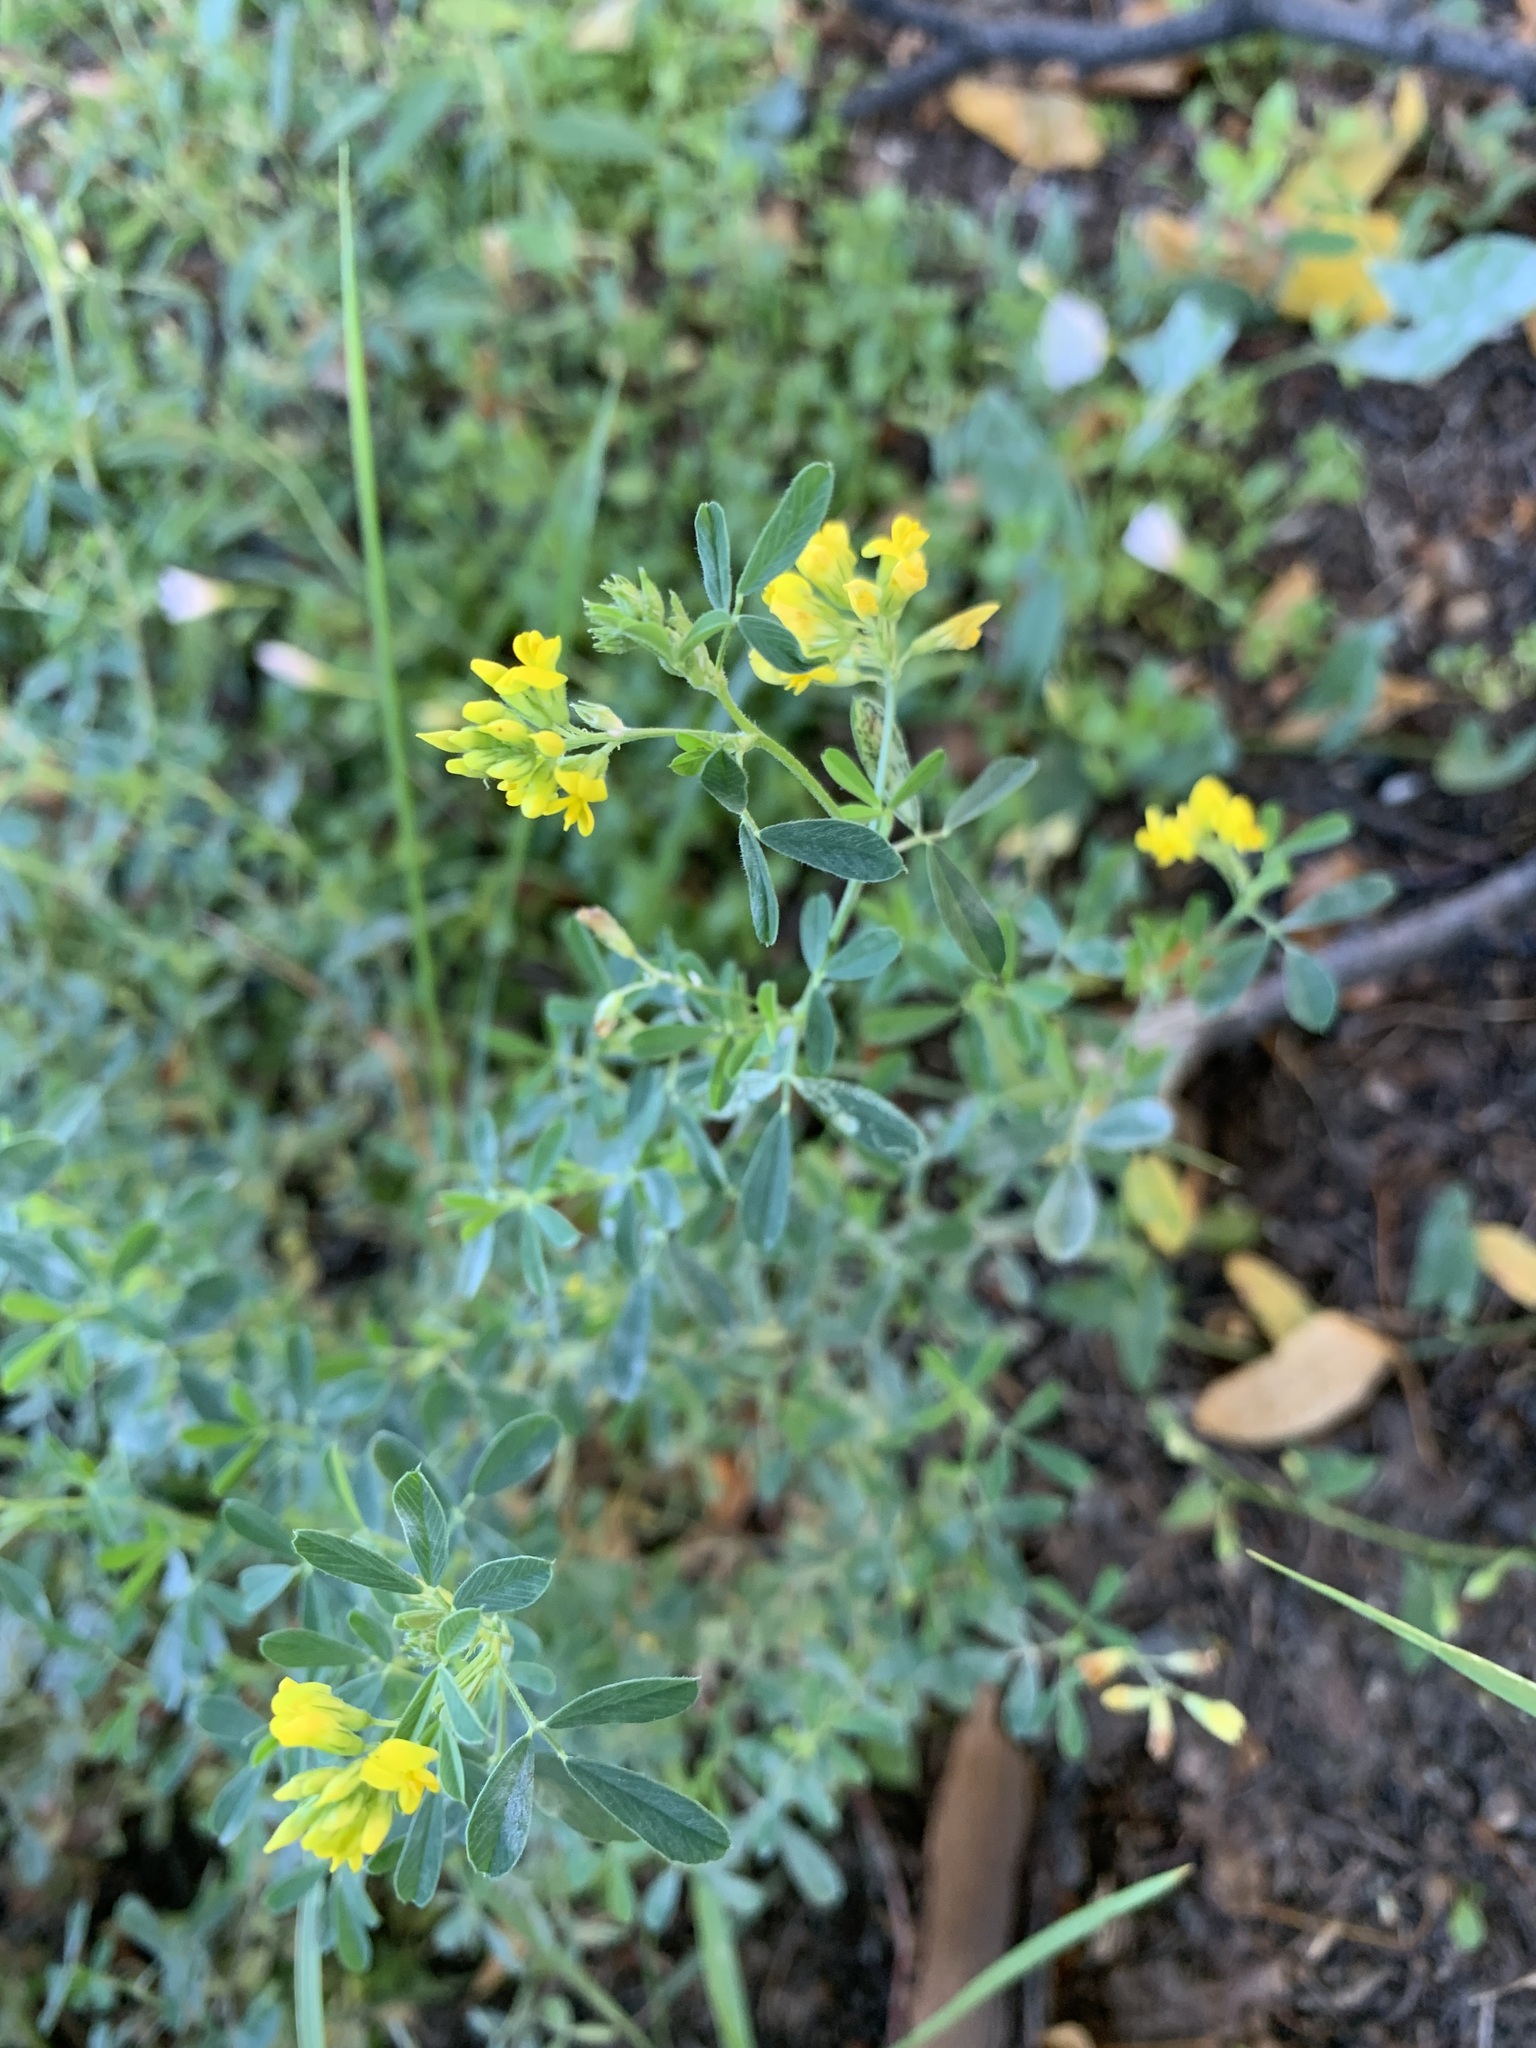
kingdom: Plantae
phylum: Tracheophyta
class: Magnoliopsida
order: Fabales
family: Fabaceae
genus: Medicago
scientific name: Medicago falcata
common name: Sickle medick
